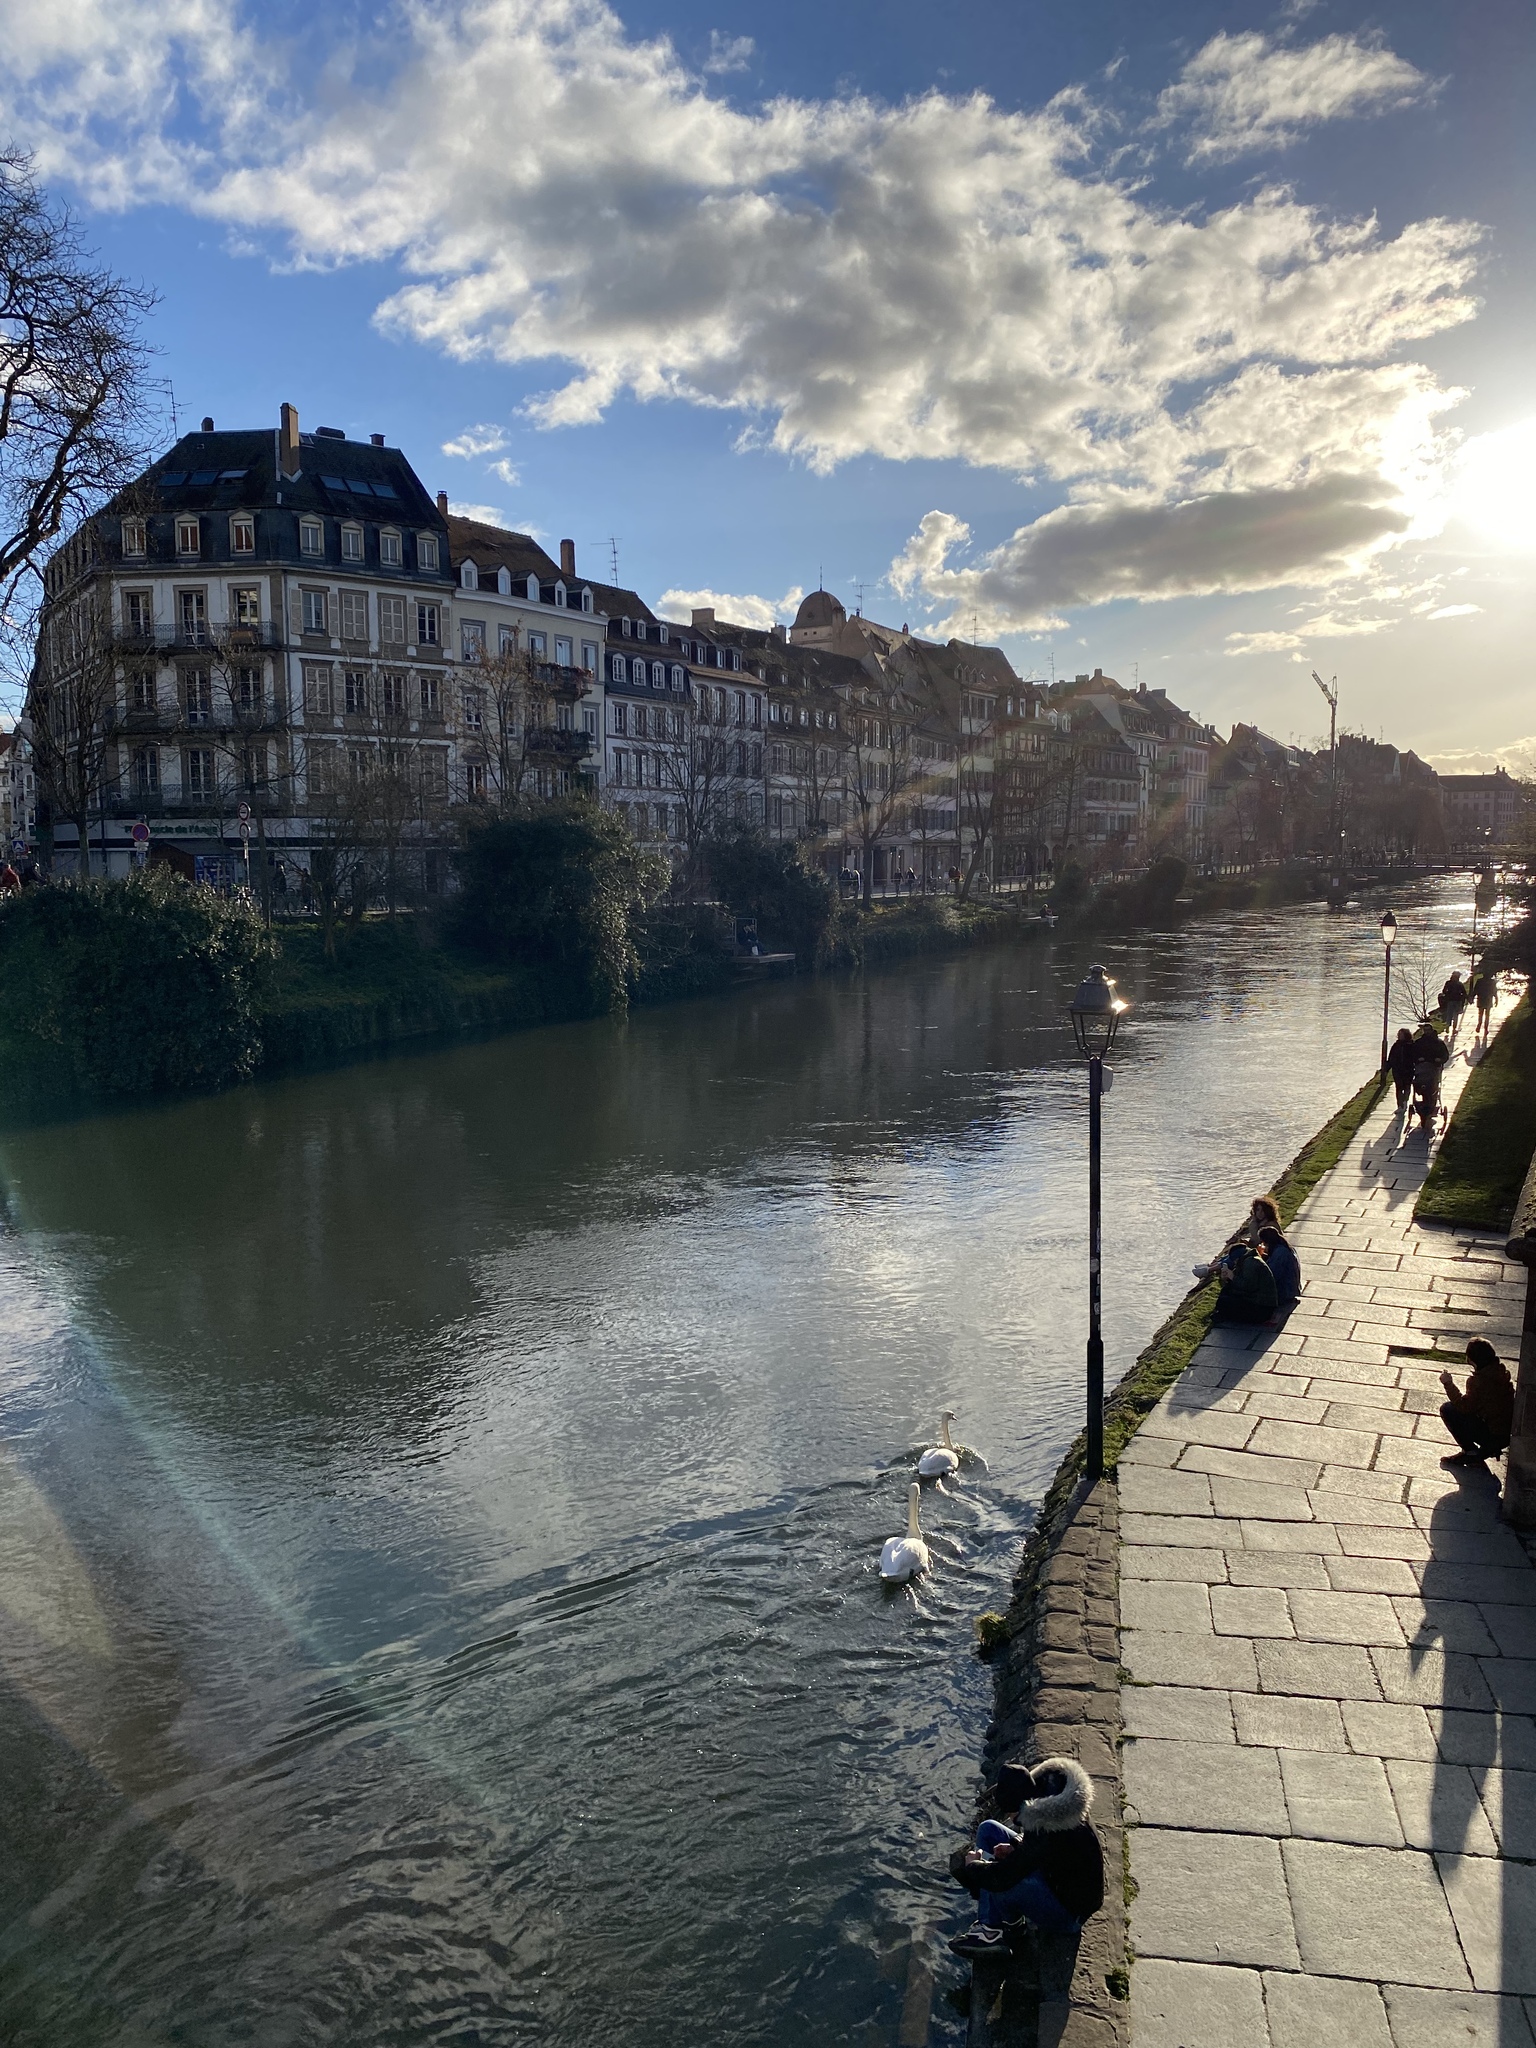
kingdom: Animalia
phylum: Chordata
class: Aves
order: Anseriformes
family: Anatidae
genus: Cygnus
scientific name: Cygnus olor
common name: Mute swan
